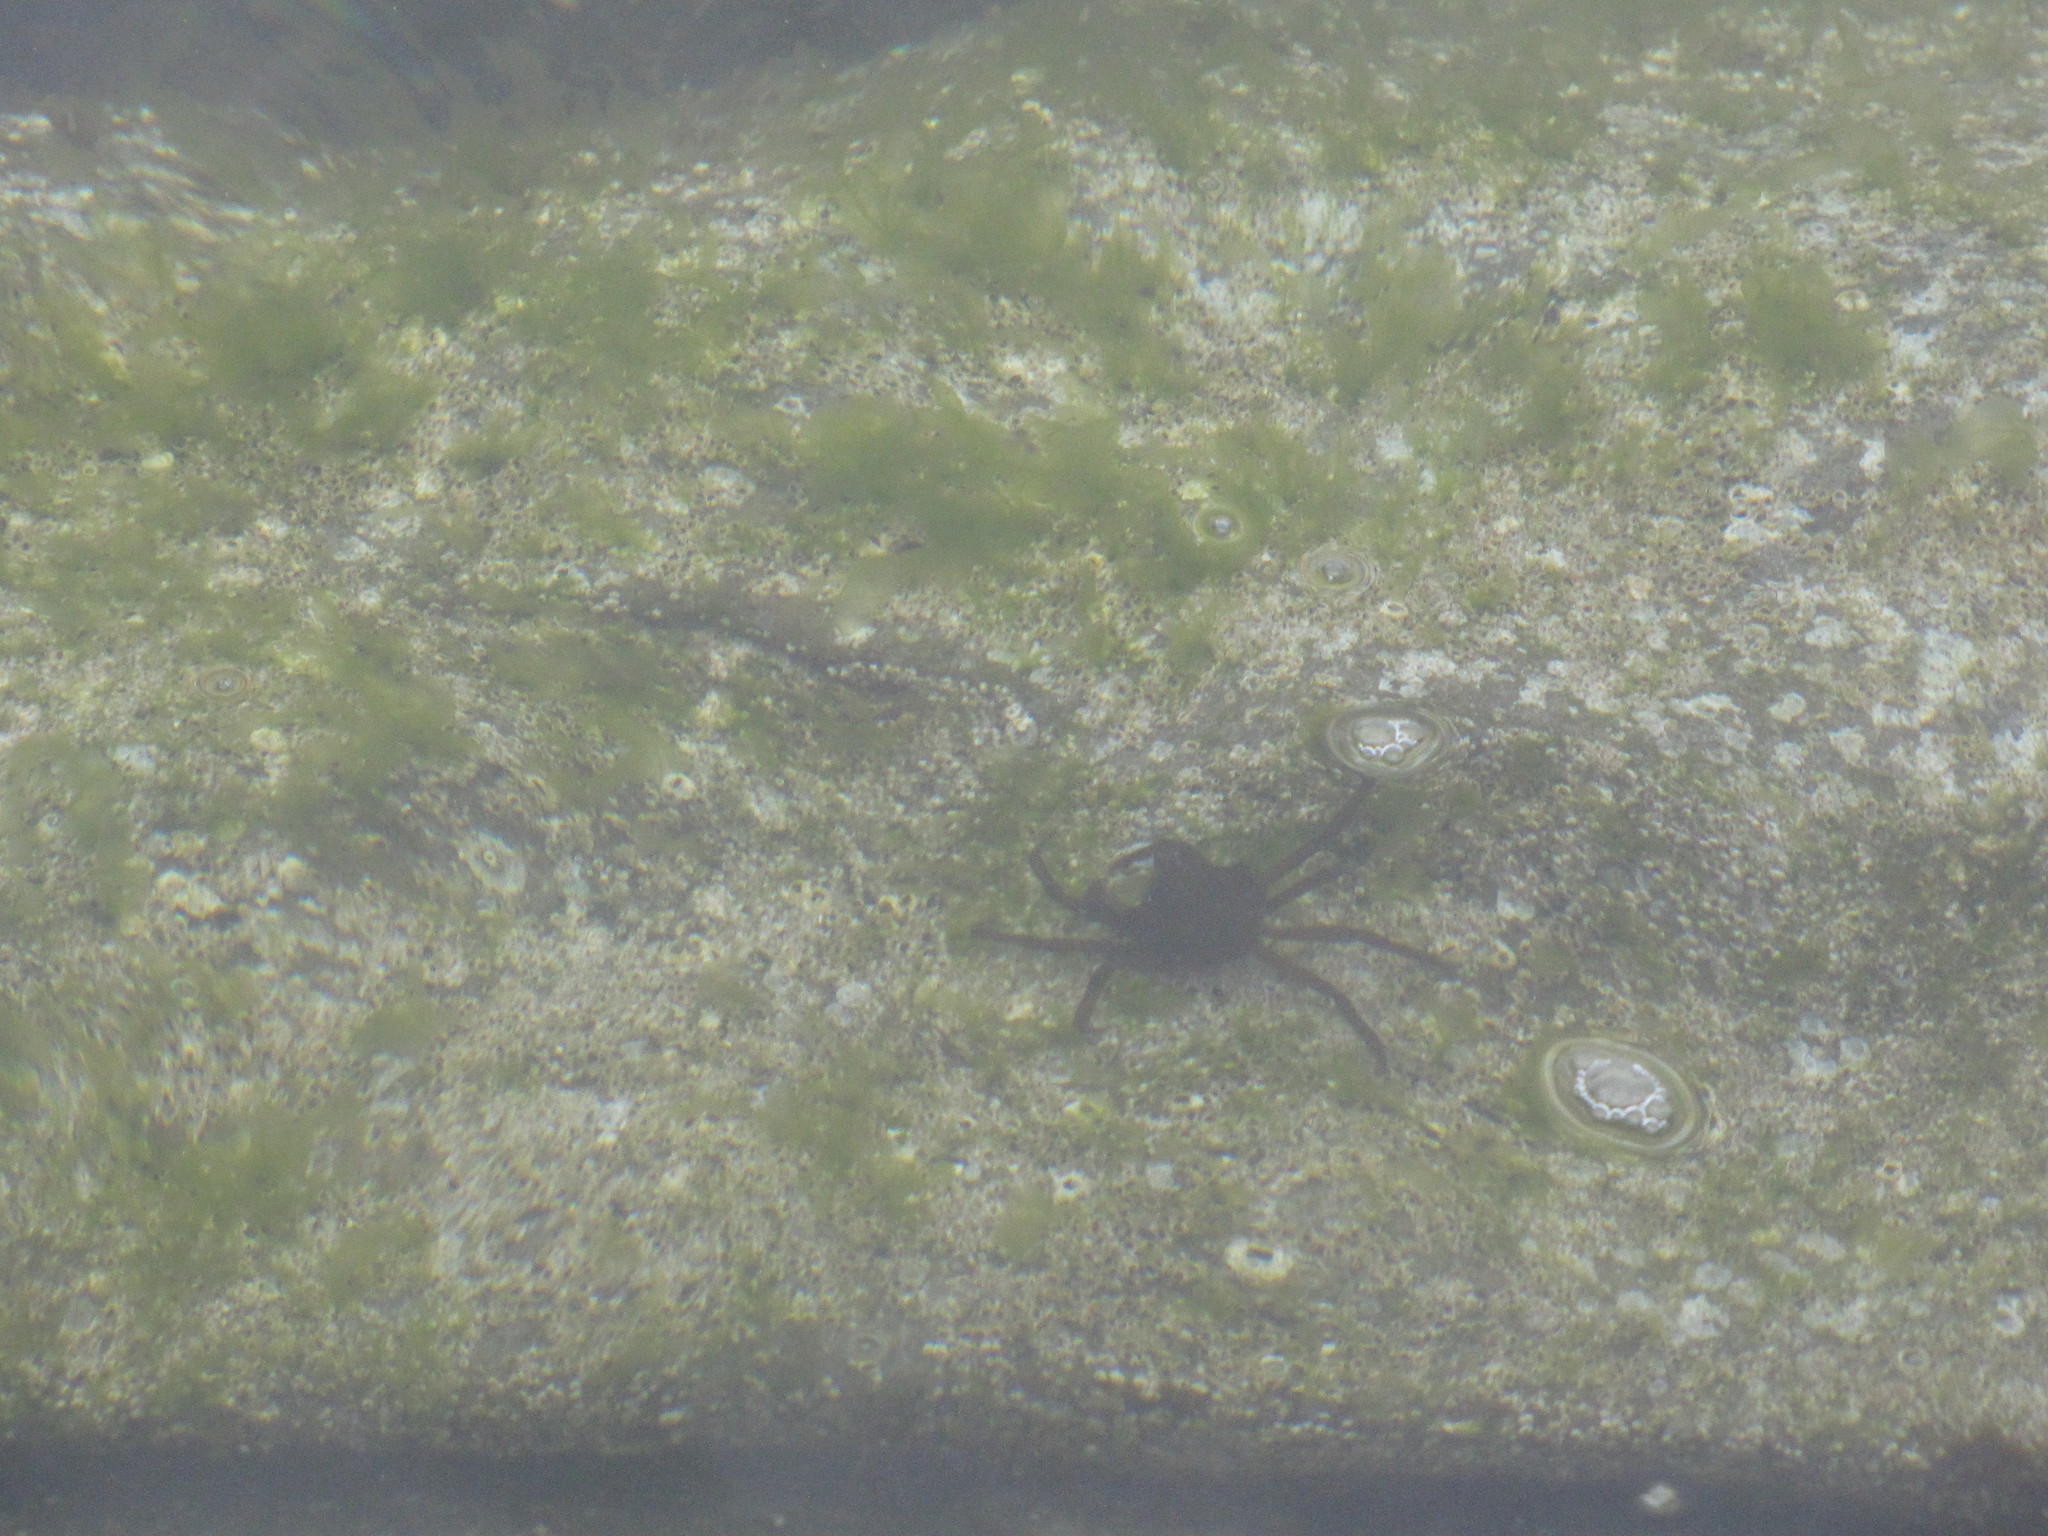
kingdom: Animalia
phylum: Arthropoda
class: Malacostraca
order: Decapoda
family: Epialtidae
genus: Pugettia
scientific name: Pugettia producta
